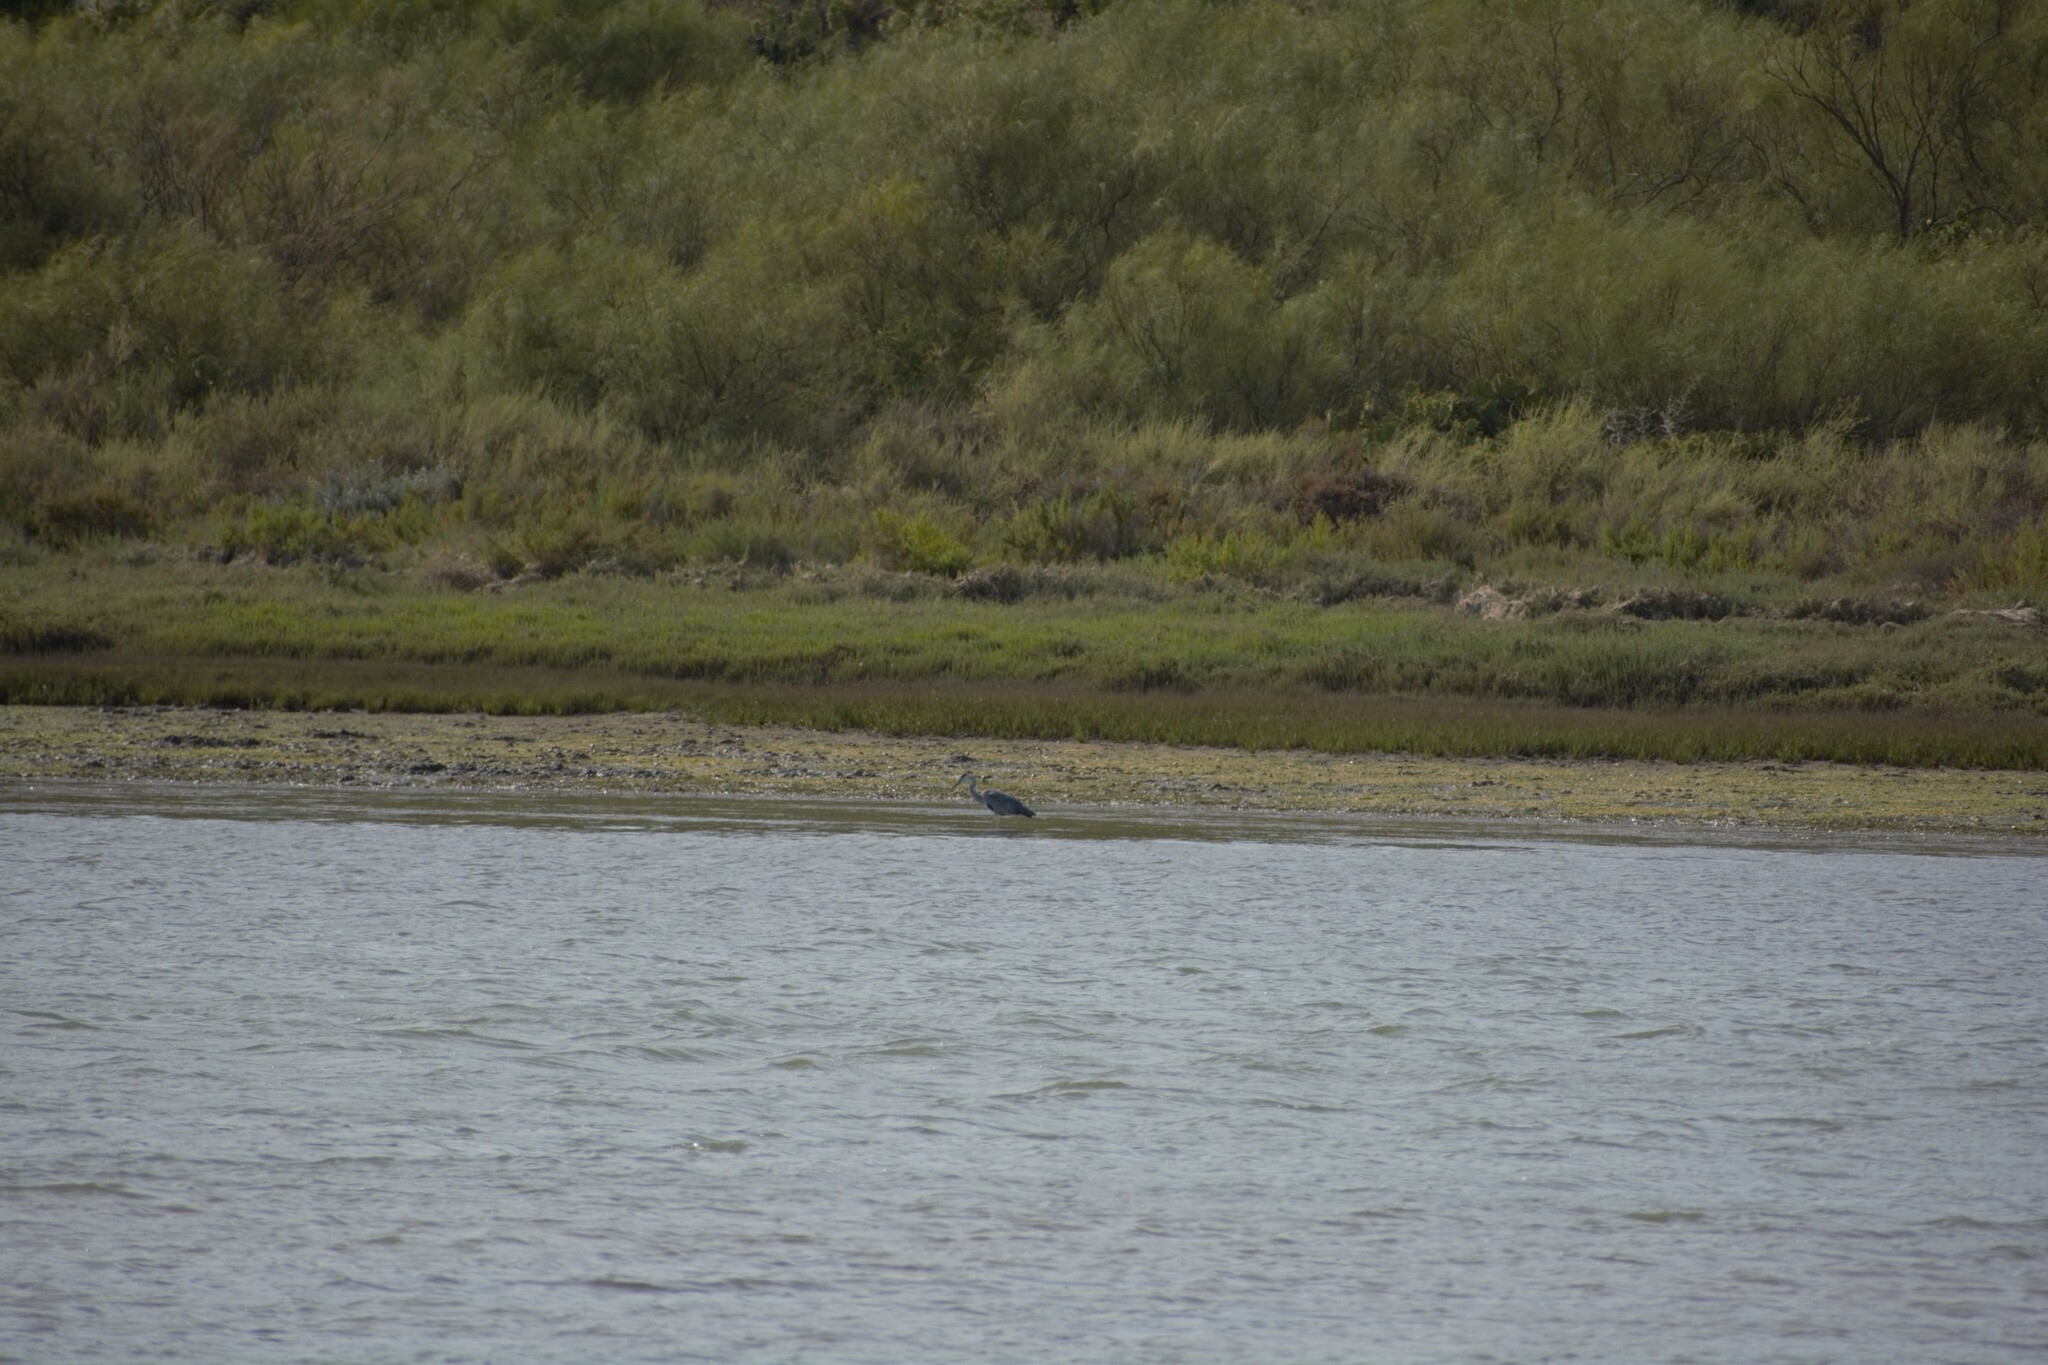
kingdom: Animalia
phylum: Chordata
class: Aves
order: Pelecaniformes
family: Ardeidae
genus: Ardea
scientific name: Ardea cinerea
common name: Grey heron
